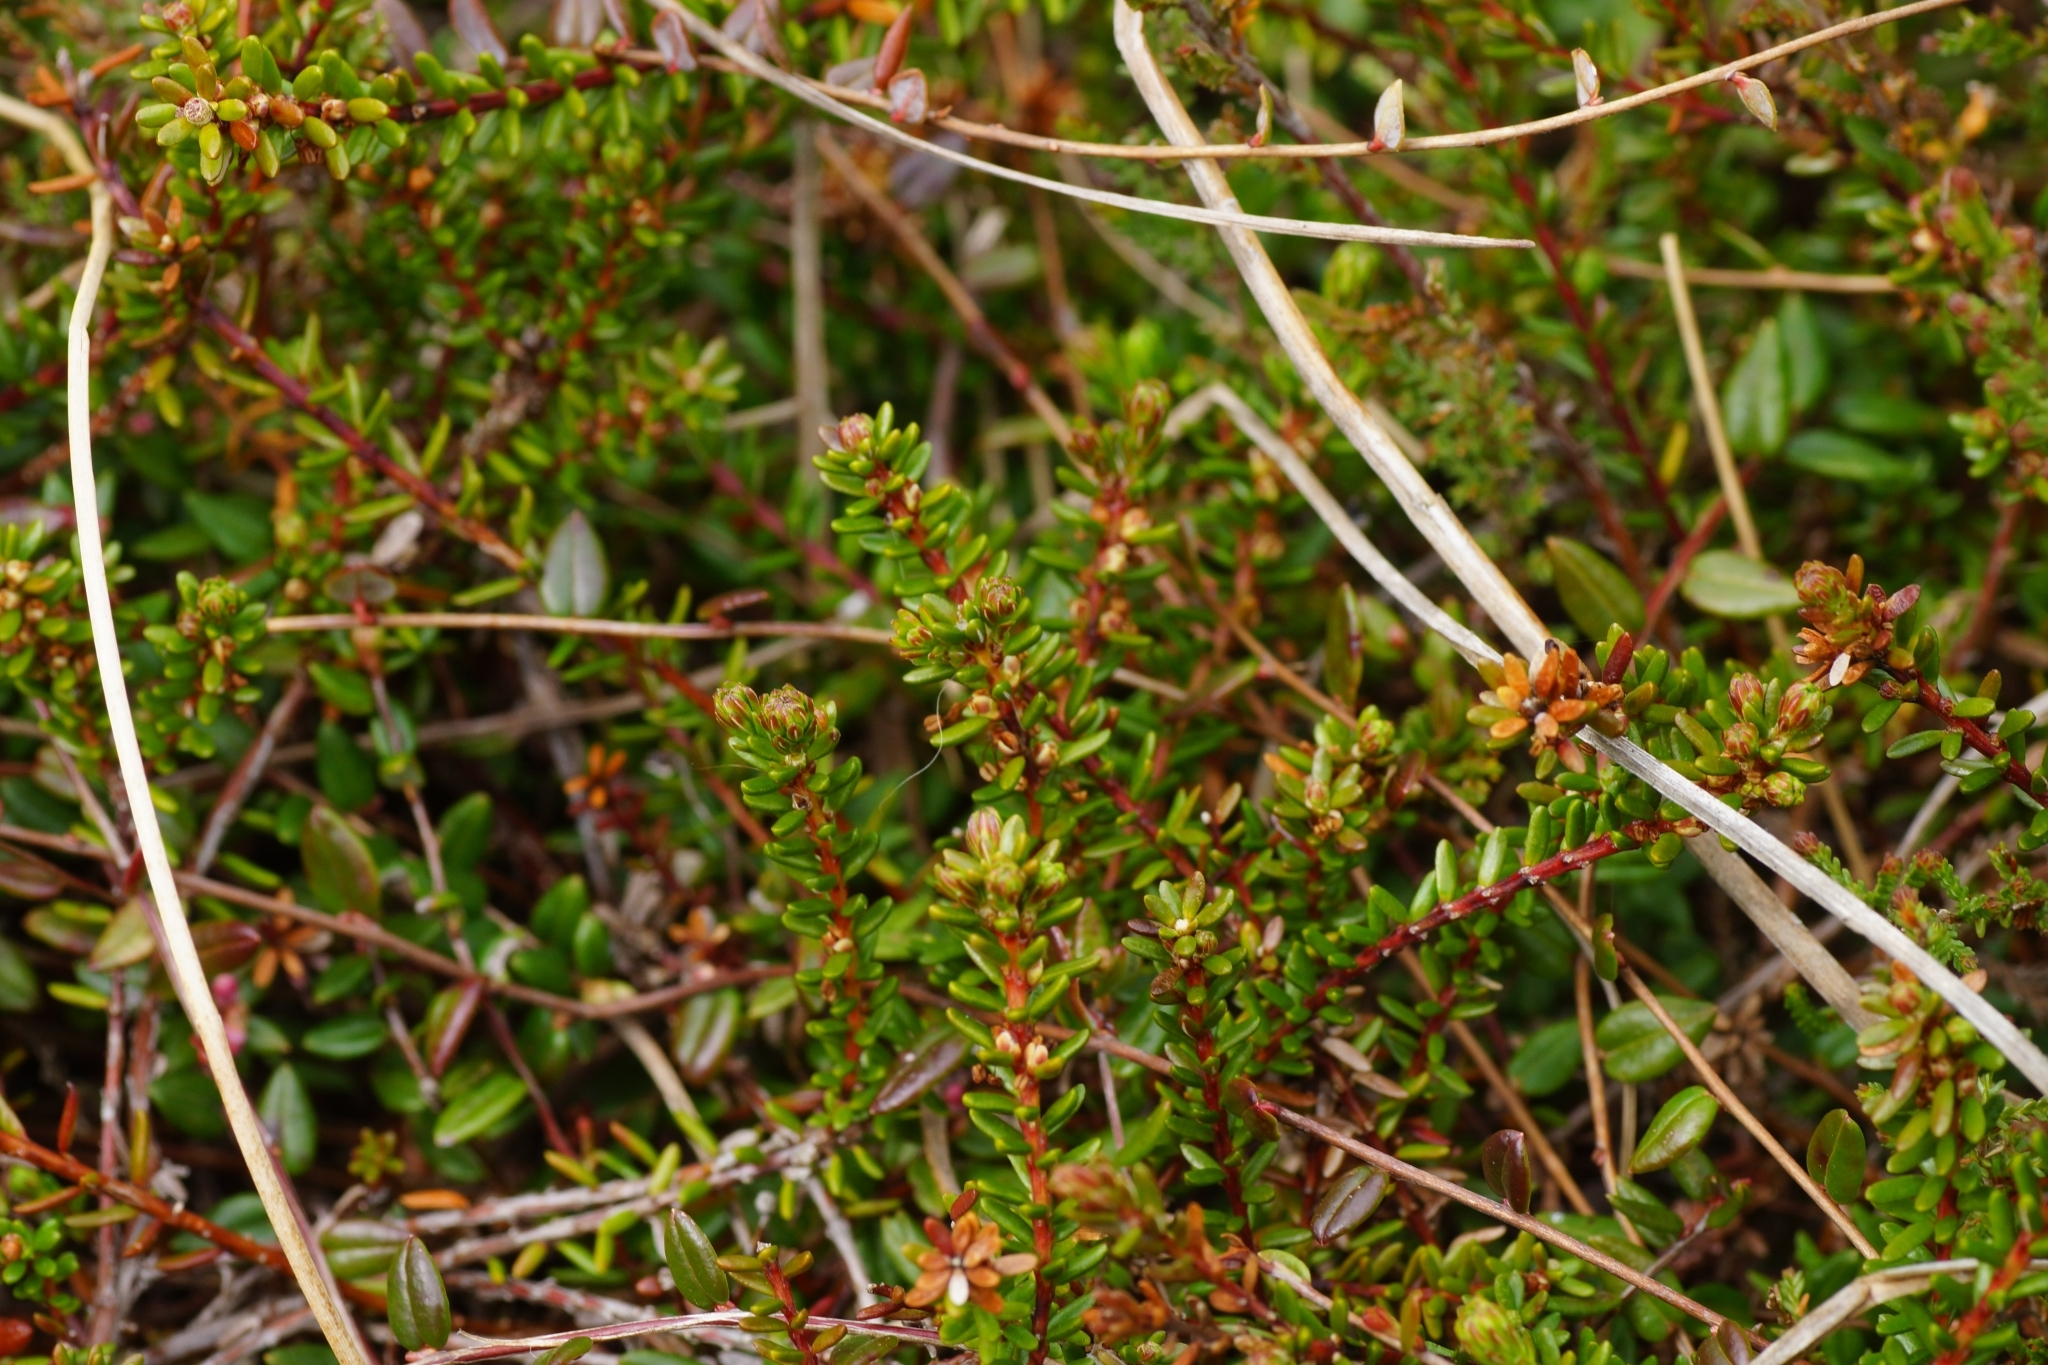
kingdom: Plantae
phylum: Tracheophyta
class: Magnoliopsida
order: Ericales
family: Ericaceae
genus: Empetrum
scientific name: Empetrum nigrum
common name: Black crowberry
